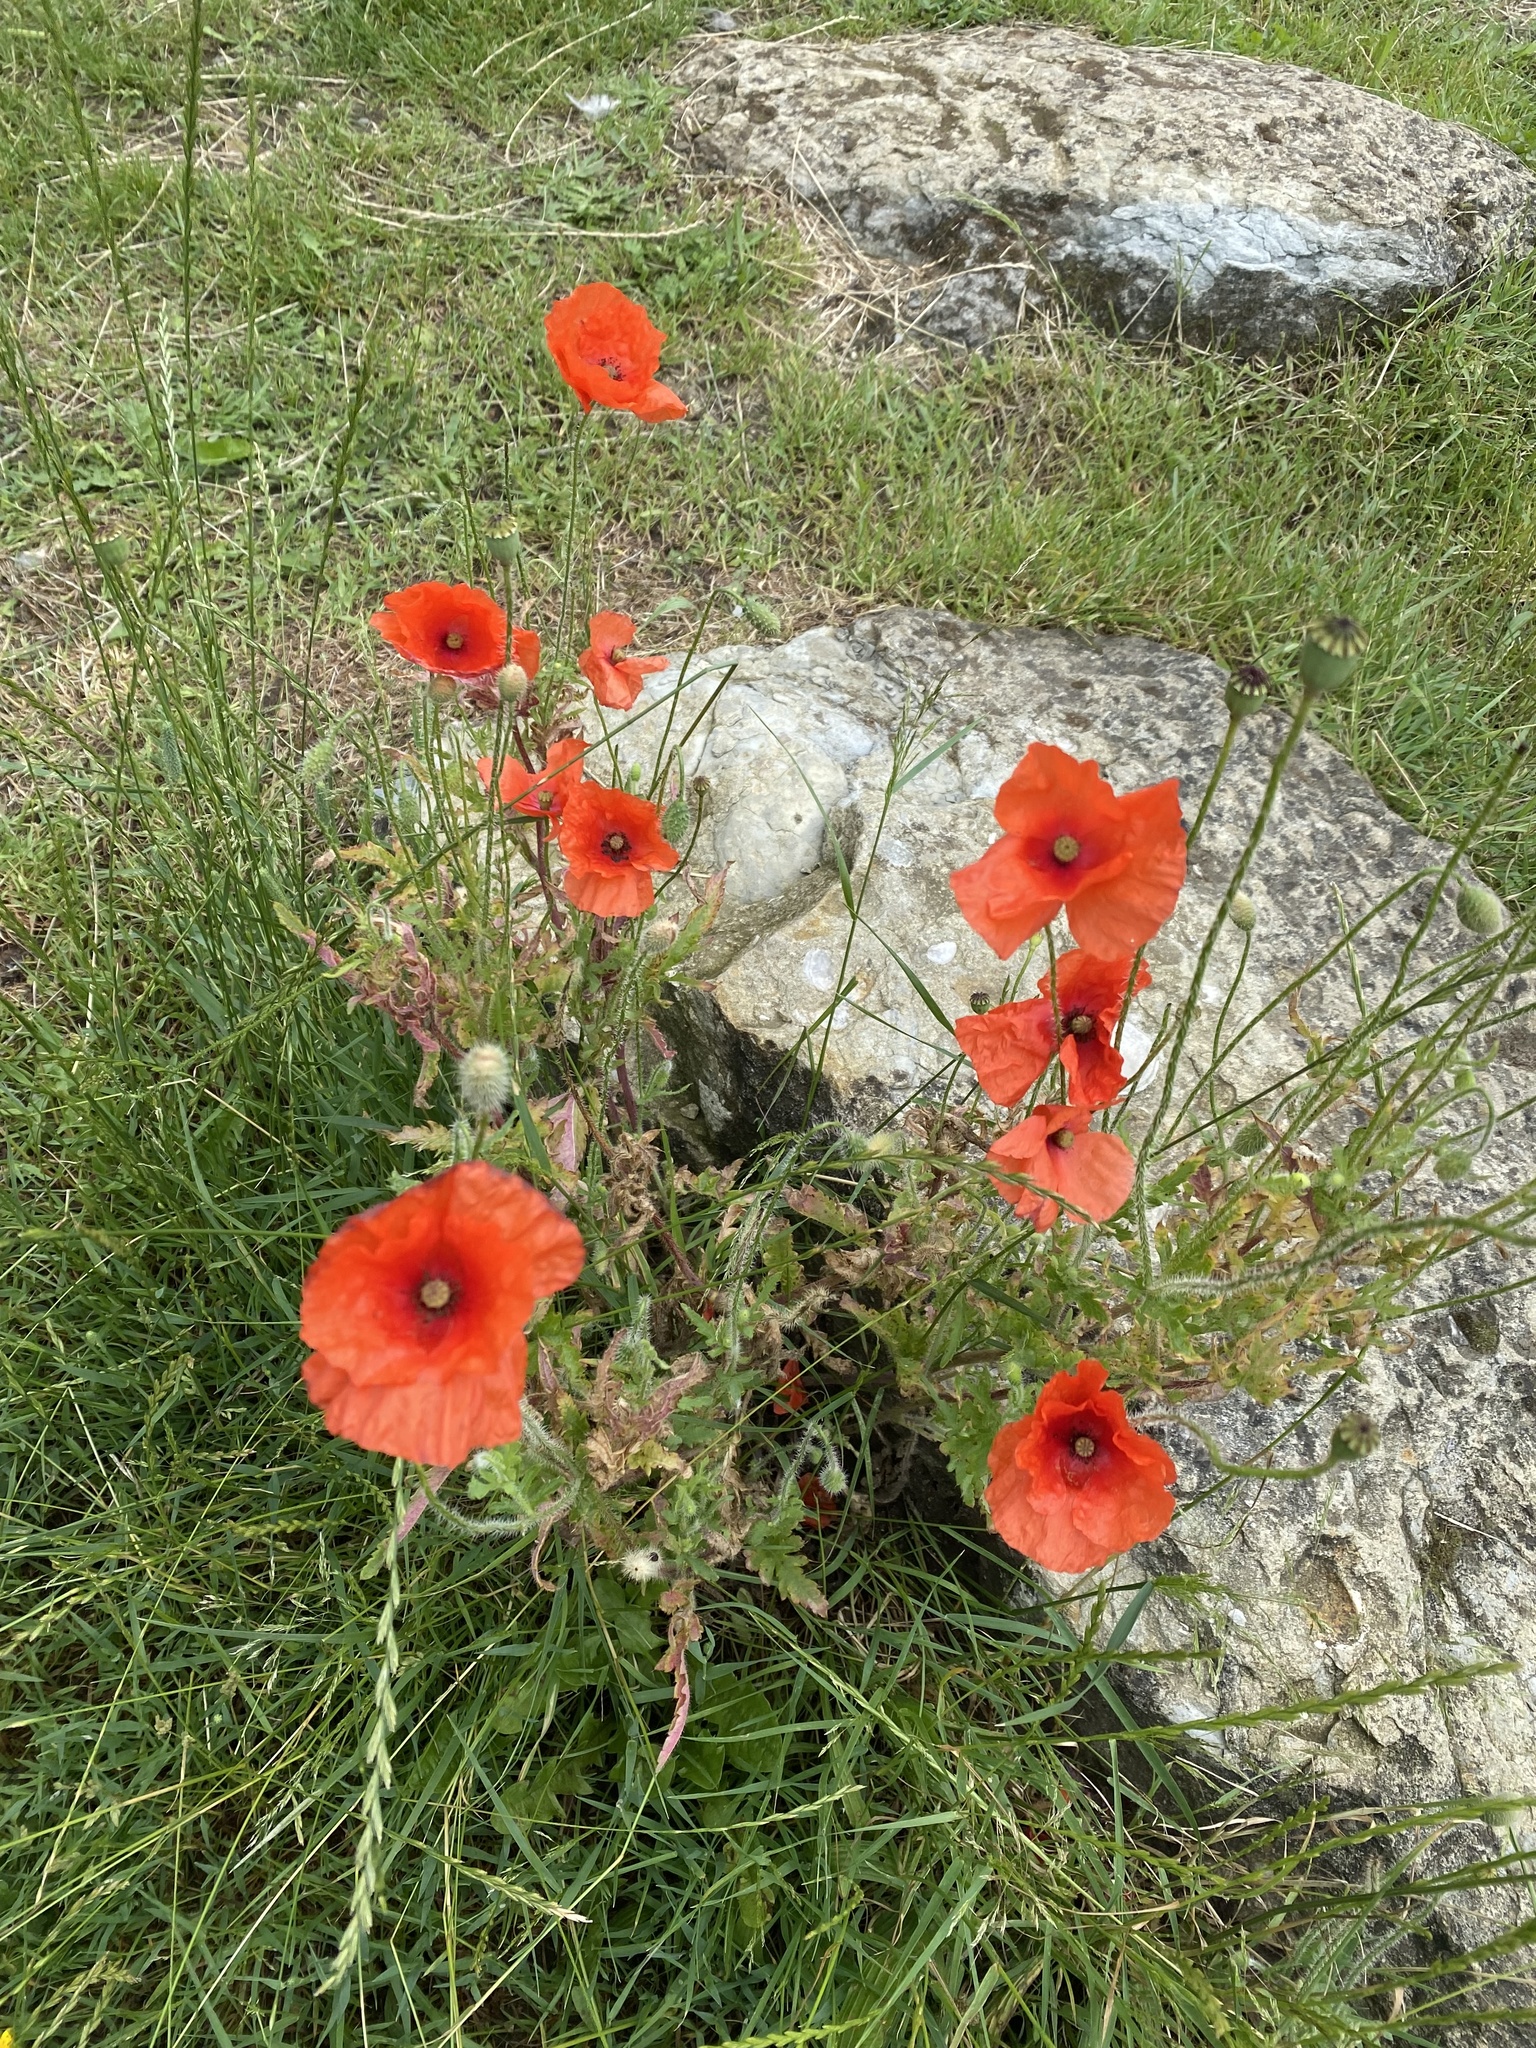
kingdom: Plantae
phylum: Tracheophyta
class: Magnoliopsida
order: Ranunculales
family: Papaveraceae
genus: Papaver
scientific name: Papaver rhoeas
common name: Corn poppy
